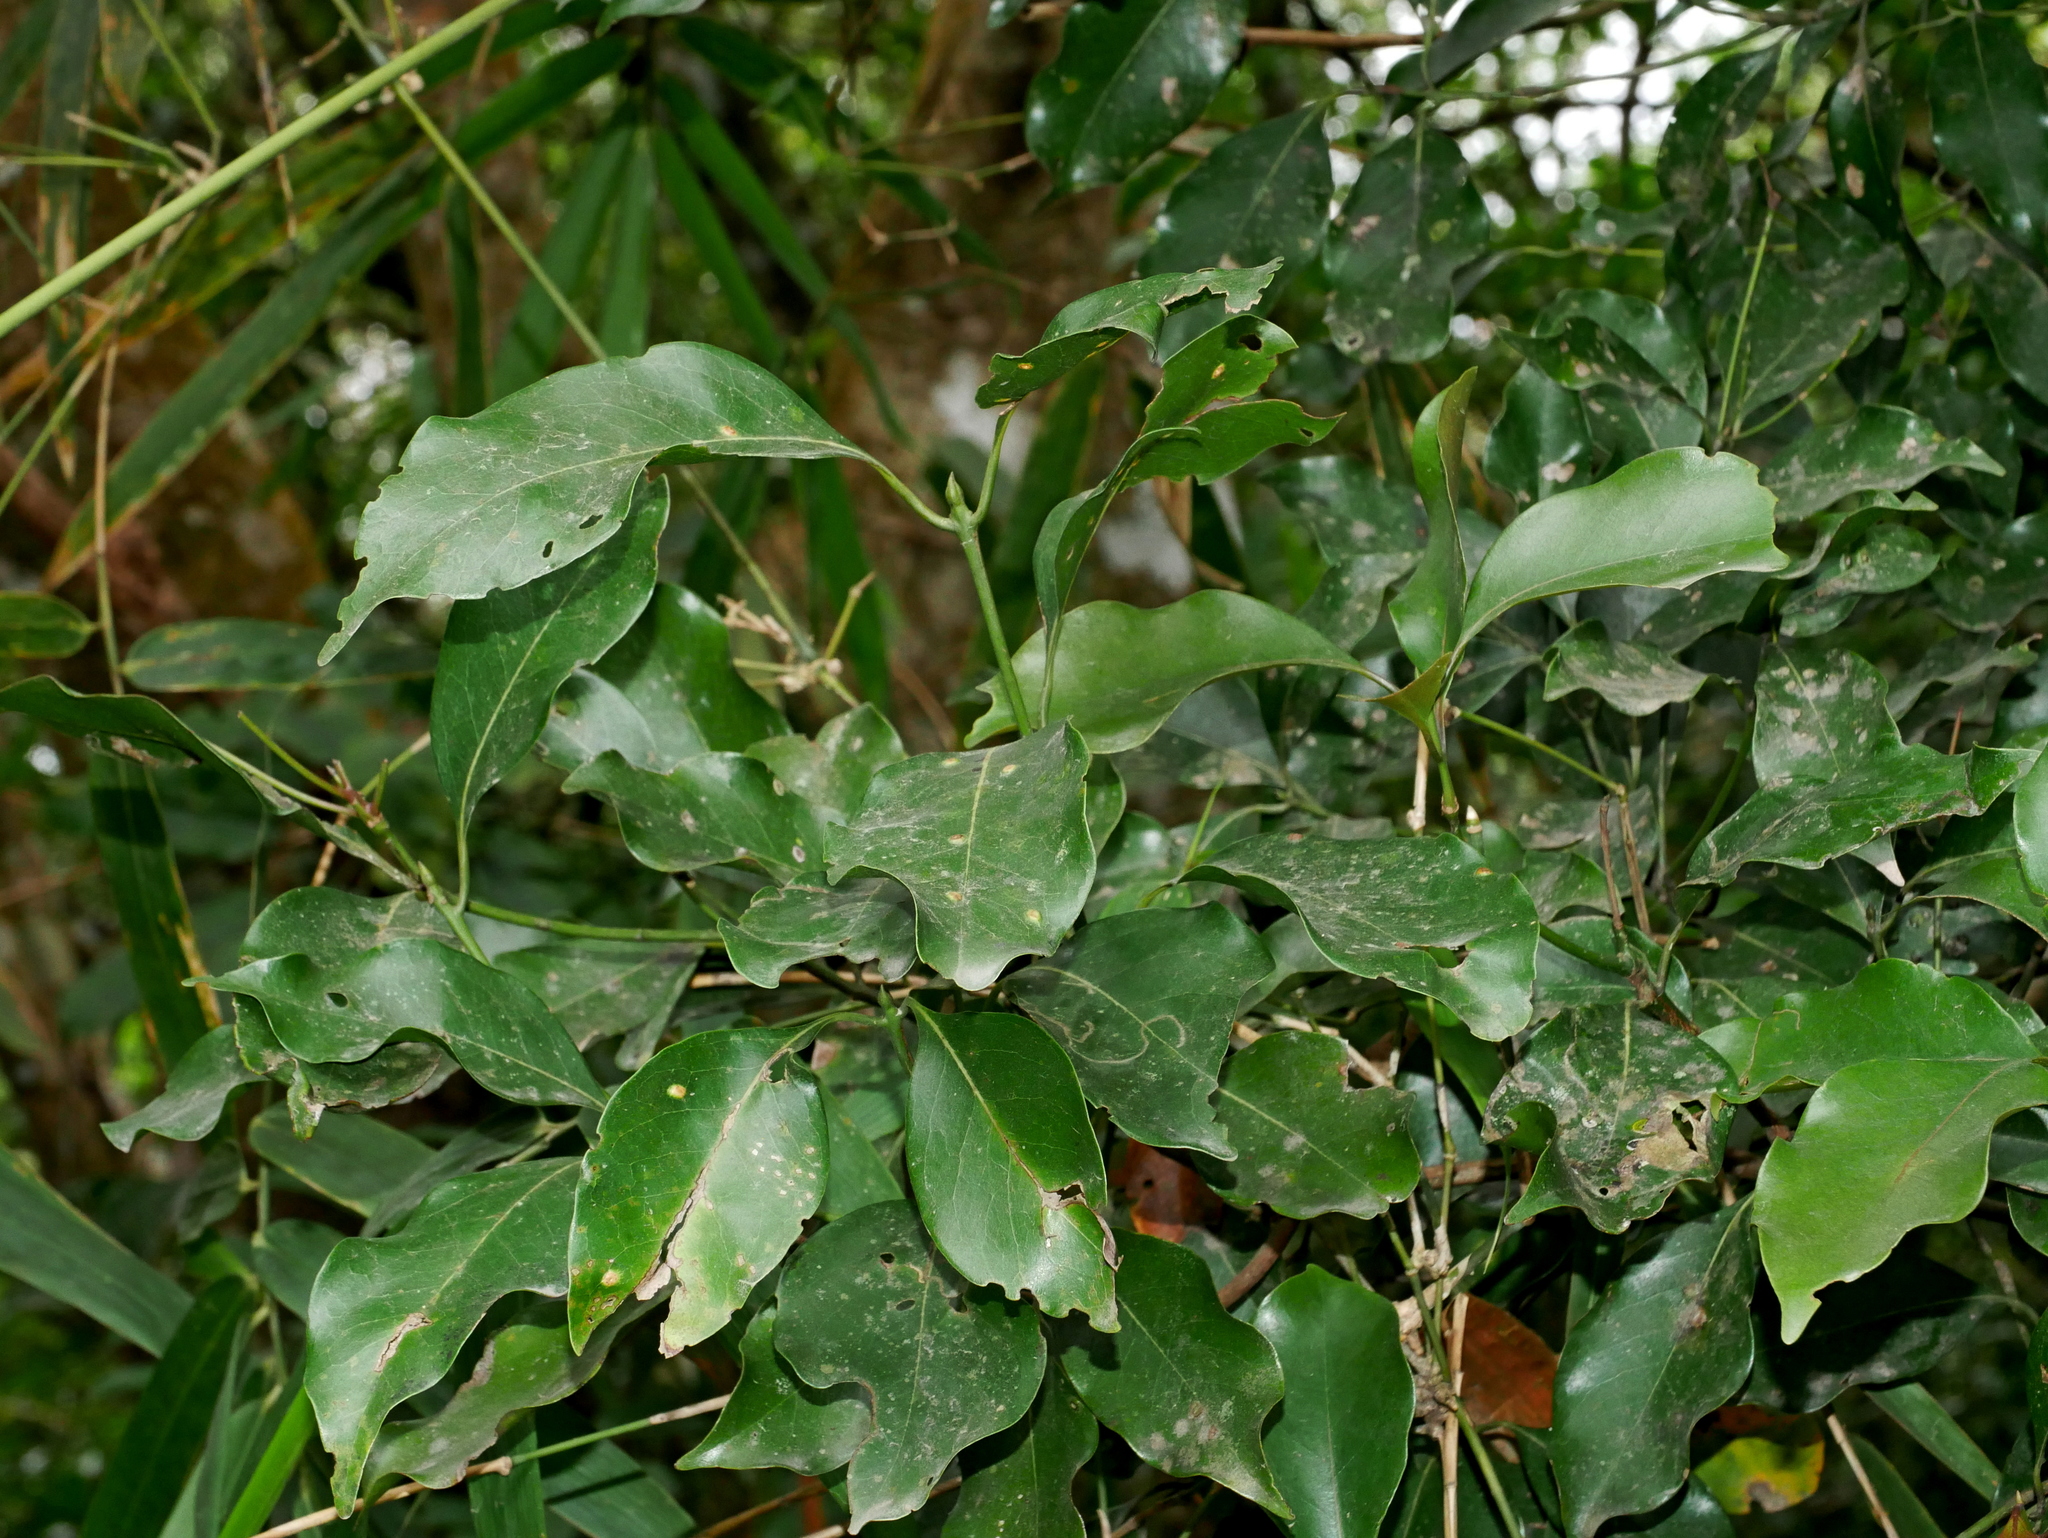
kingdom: Plantae
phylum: Tracheophyta
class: Magnoliopsida
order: Laurales
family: Lauraceae
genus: Beilschmiedia
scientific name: Beilschmiedia erythrophloia
